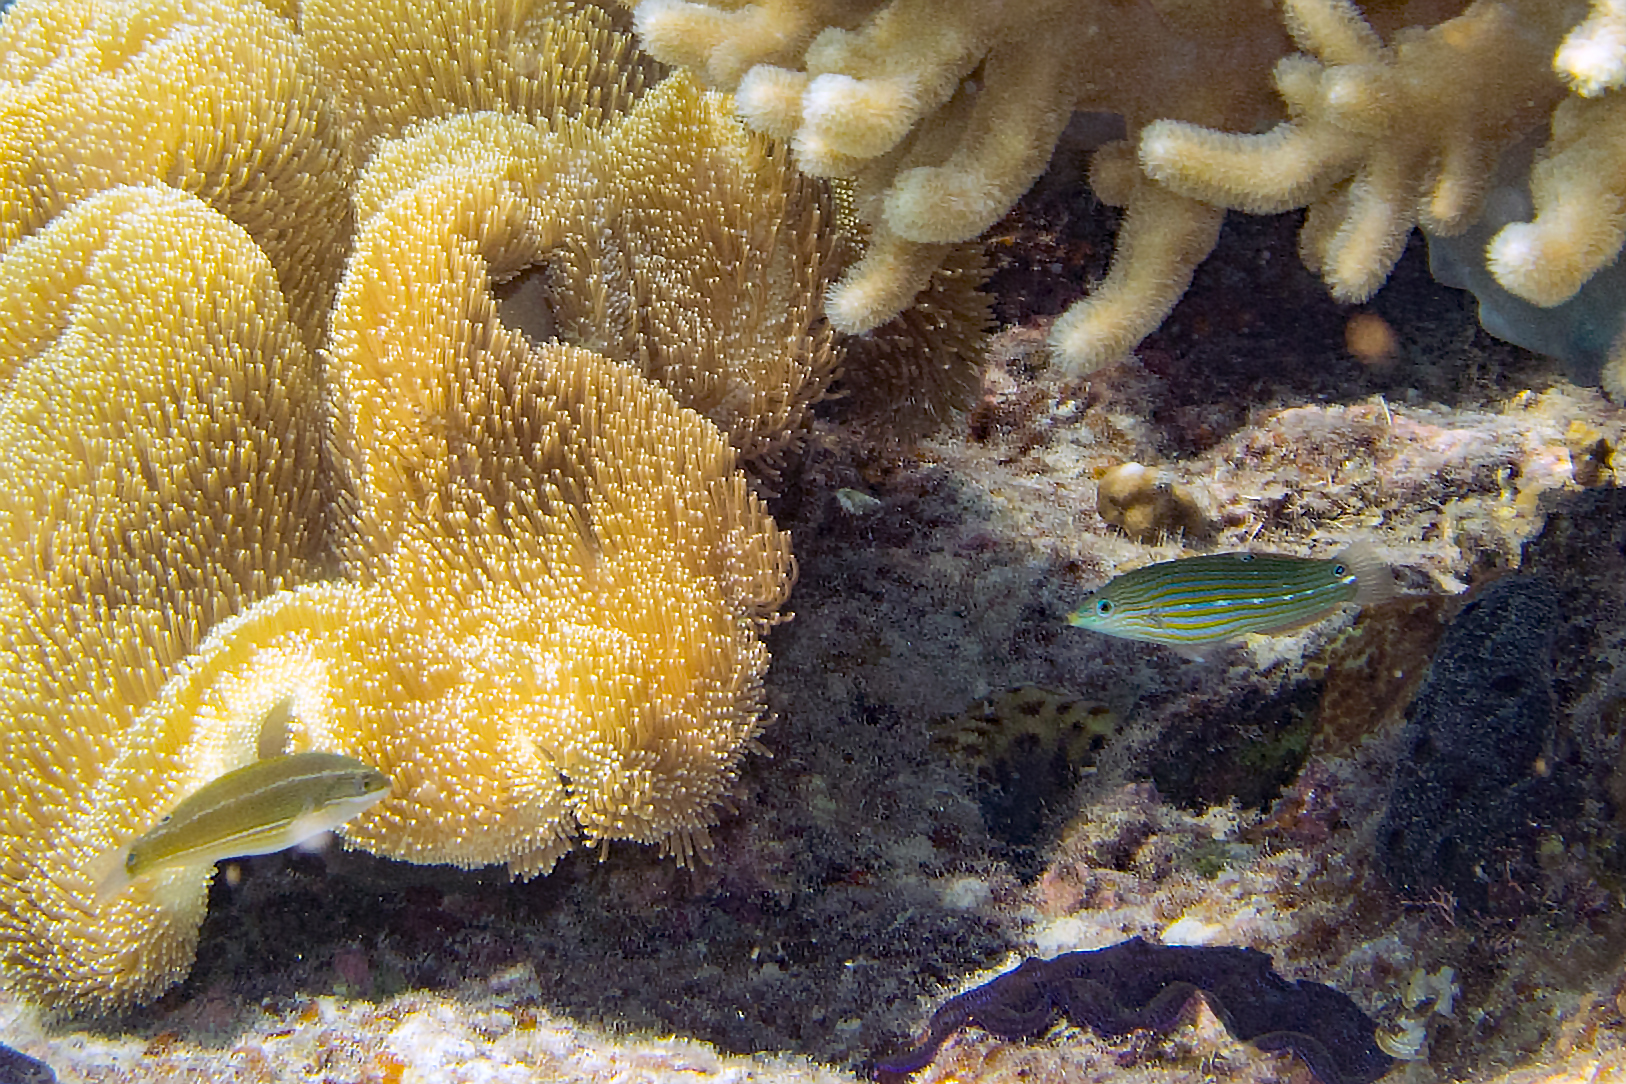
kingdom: Animalia
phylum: Chordata
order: Perciformes
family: Labridae
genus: Halichoeres
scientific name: Halichoeres melanurus
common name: Hoeven's wrasse
